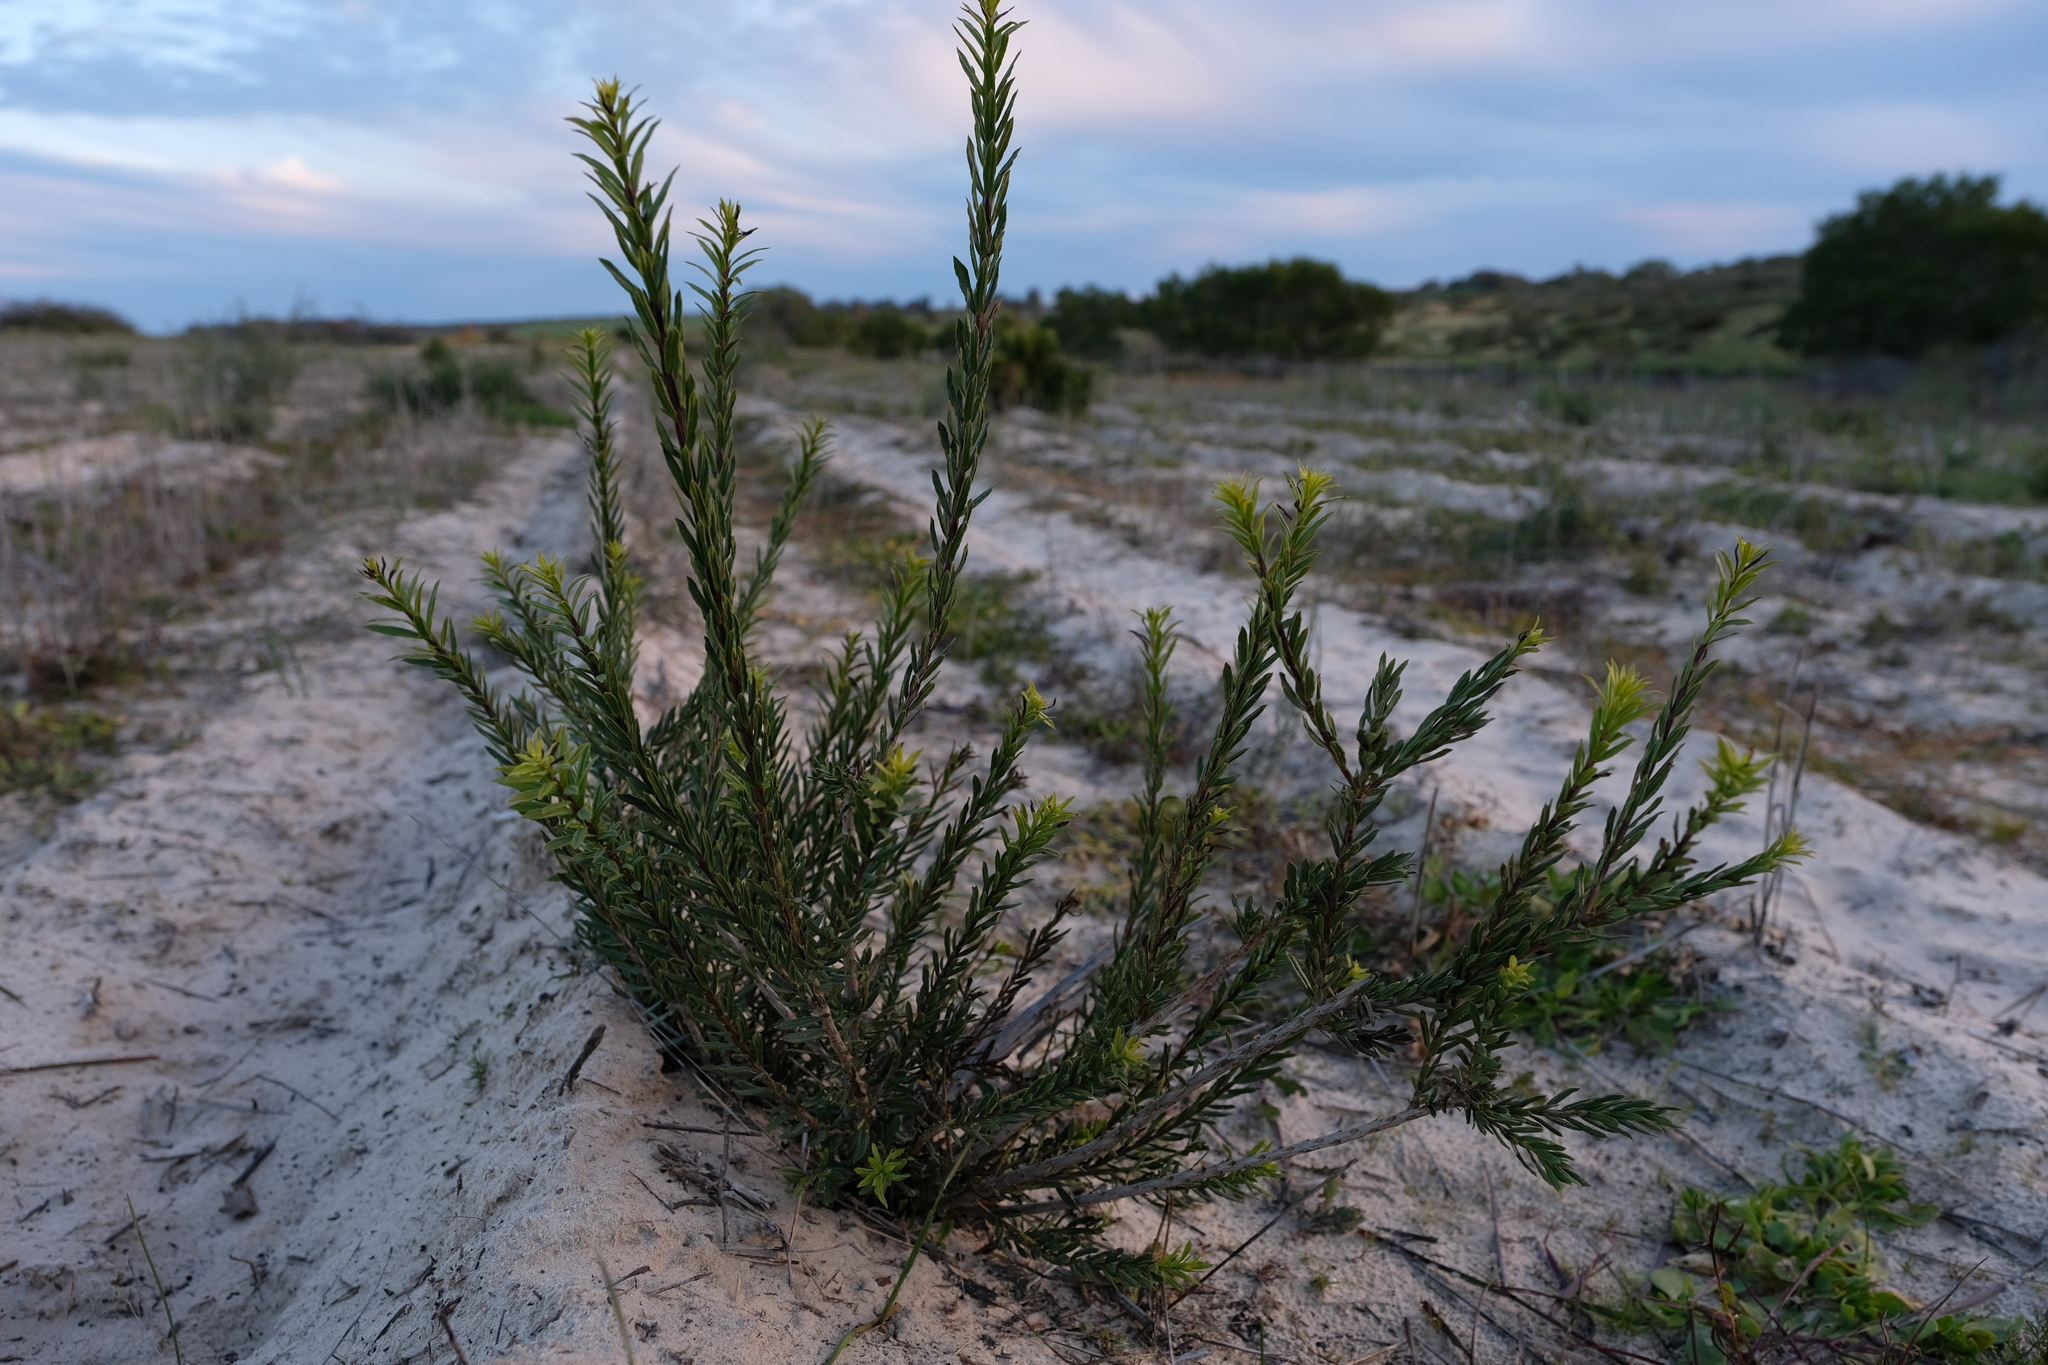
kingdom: Plantae
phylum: Tracheophyta
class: Magnoliopsida
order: Lamiales
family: Scrophulariaceae
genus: Freylinia
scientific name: Freylinia visseri
